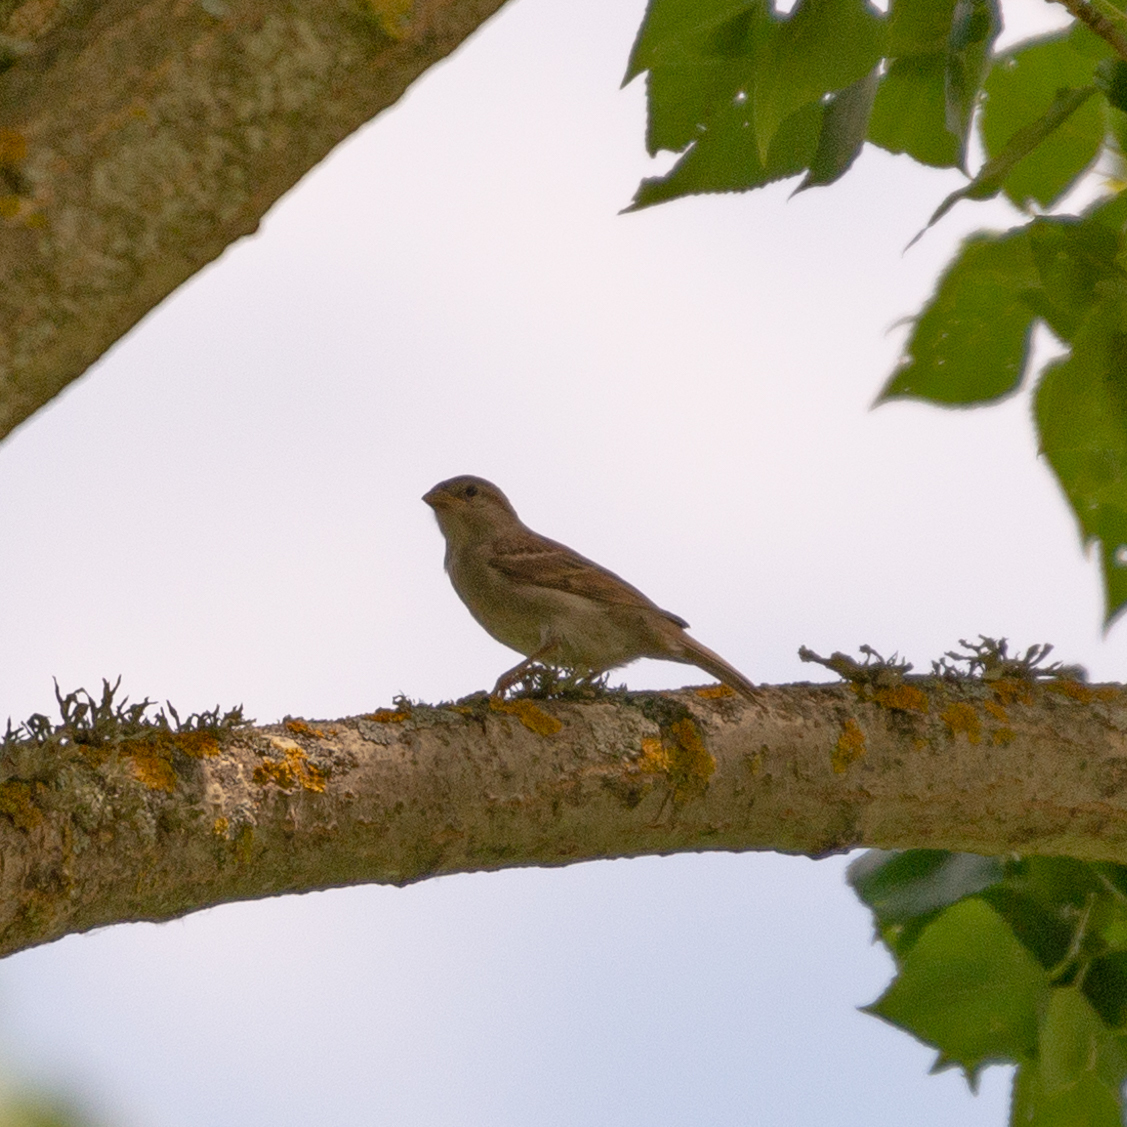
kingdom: Animalia
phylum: Chordata
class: Aves
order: Passeriformes
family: Passeridae
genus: Passer
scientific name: Passer domesticus
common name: House sparrow
